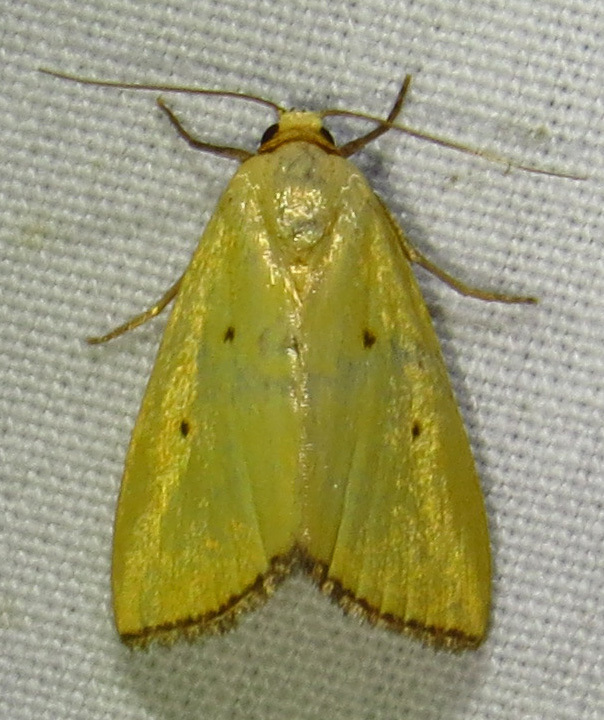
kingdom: Animalia
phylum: Arthropoda
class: Insecta
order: Lepidoptera
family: Noctuidae
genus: Marimatha
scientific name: Marimatha nigrofimbria
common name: Black-bordered lemon moth
